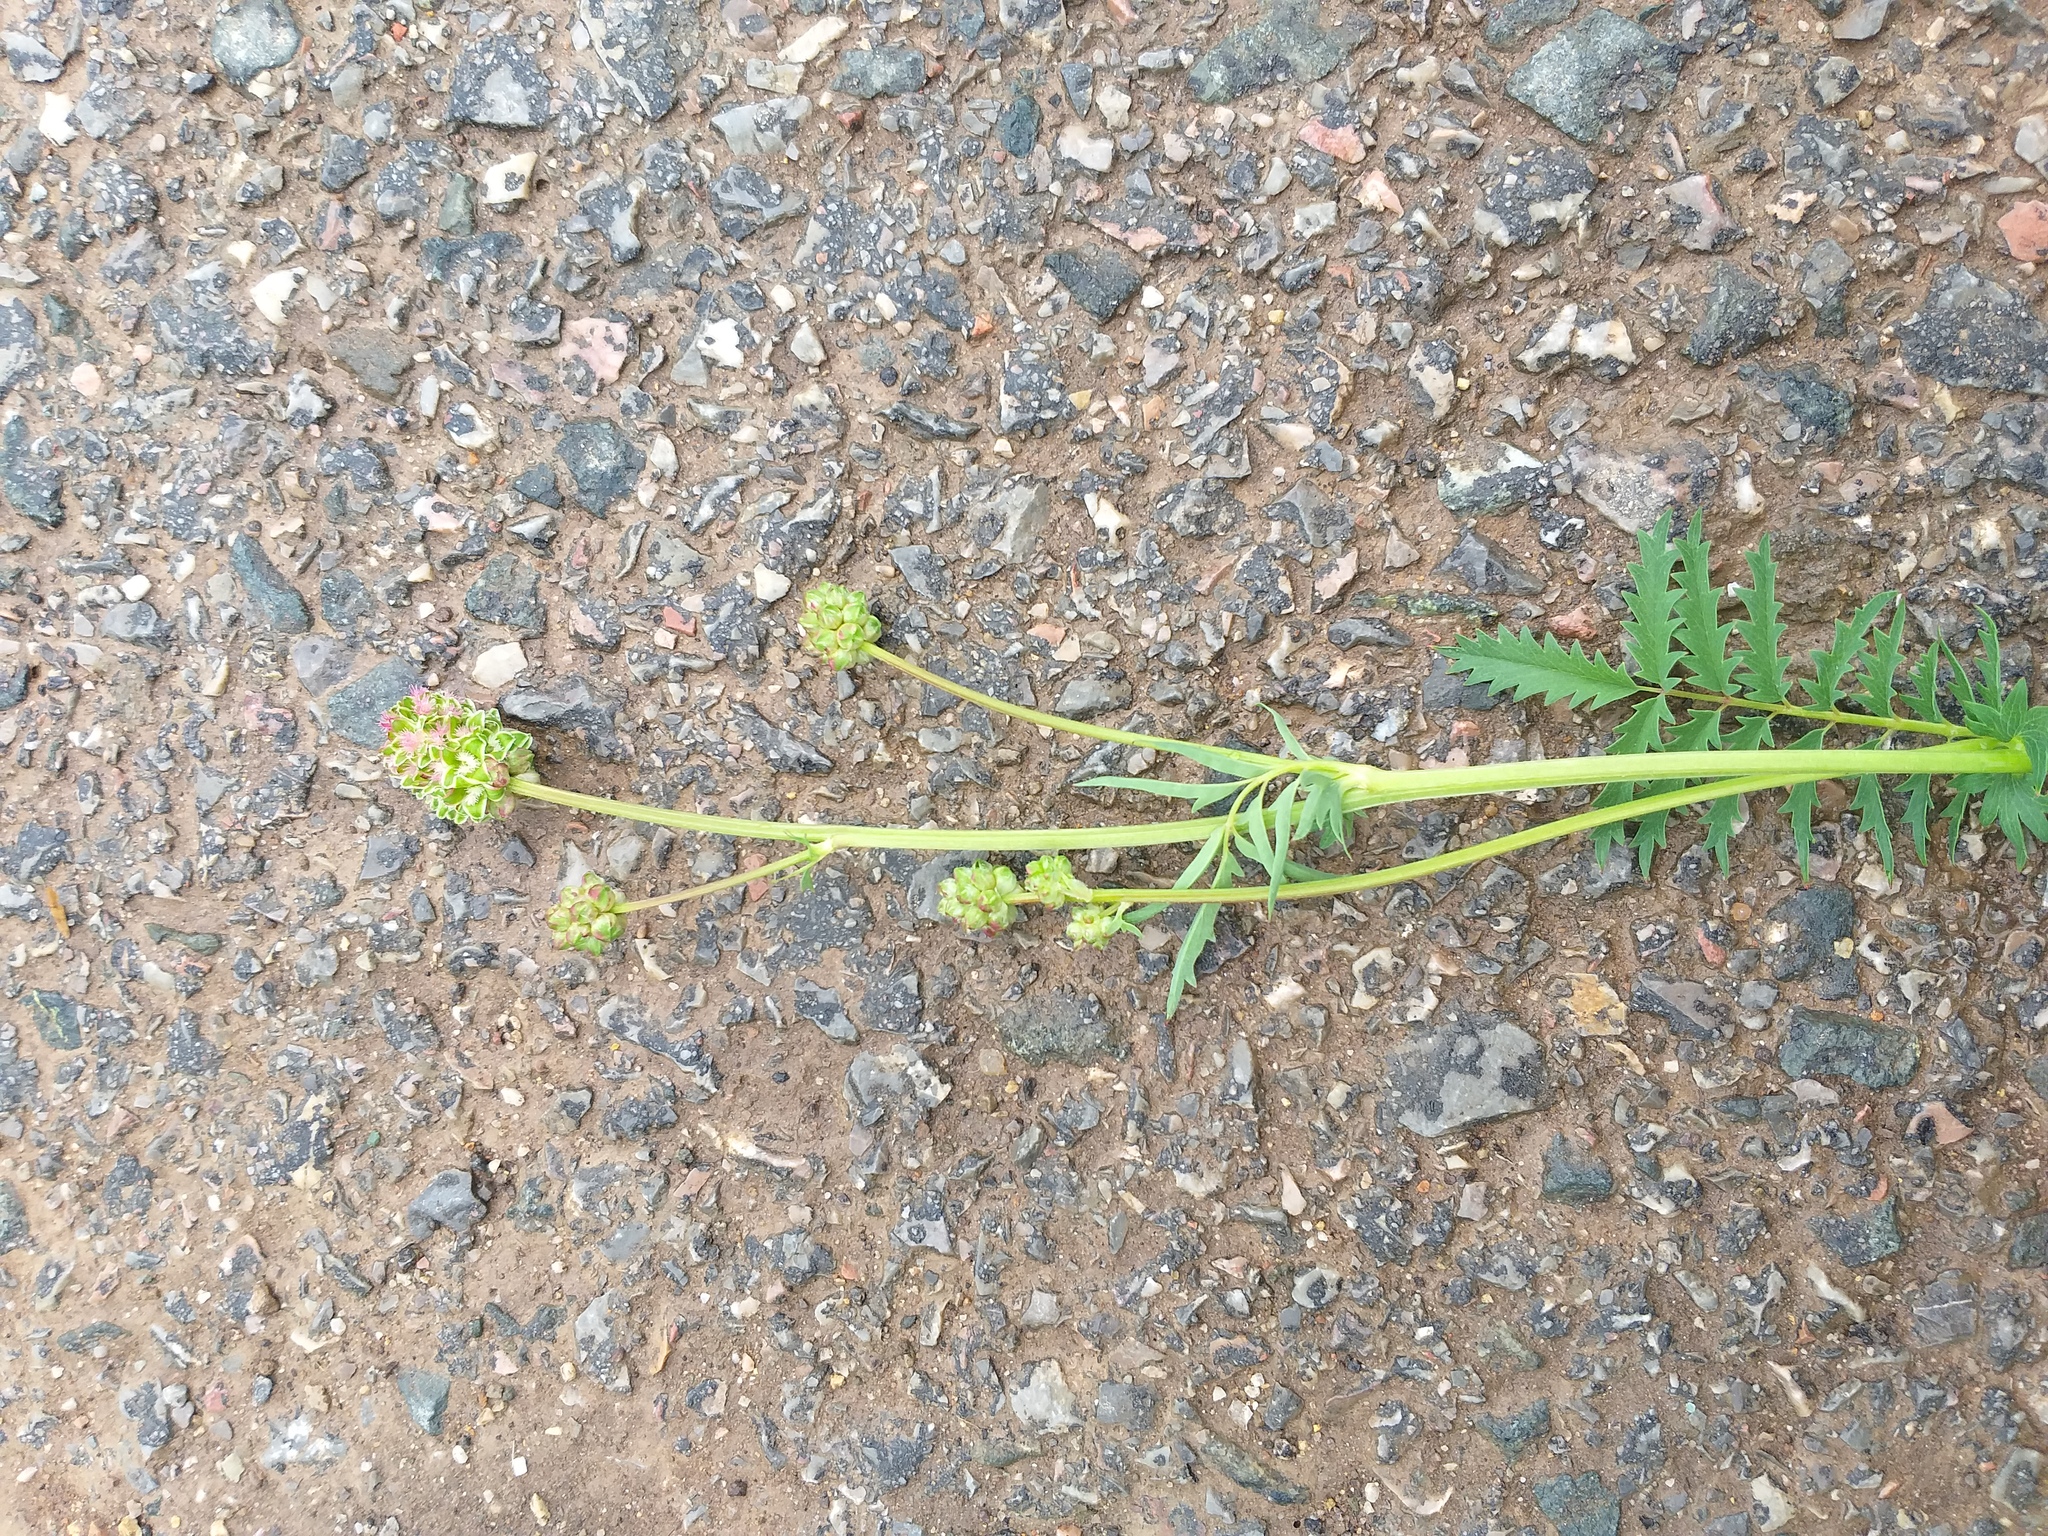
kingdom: Plantae
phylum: Tracheophyta
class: Magnoliopsida
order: Rosales
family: Rosaceae
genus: Poterium
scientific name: Poterium sanguisorba
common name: Salad burnet
